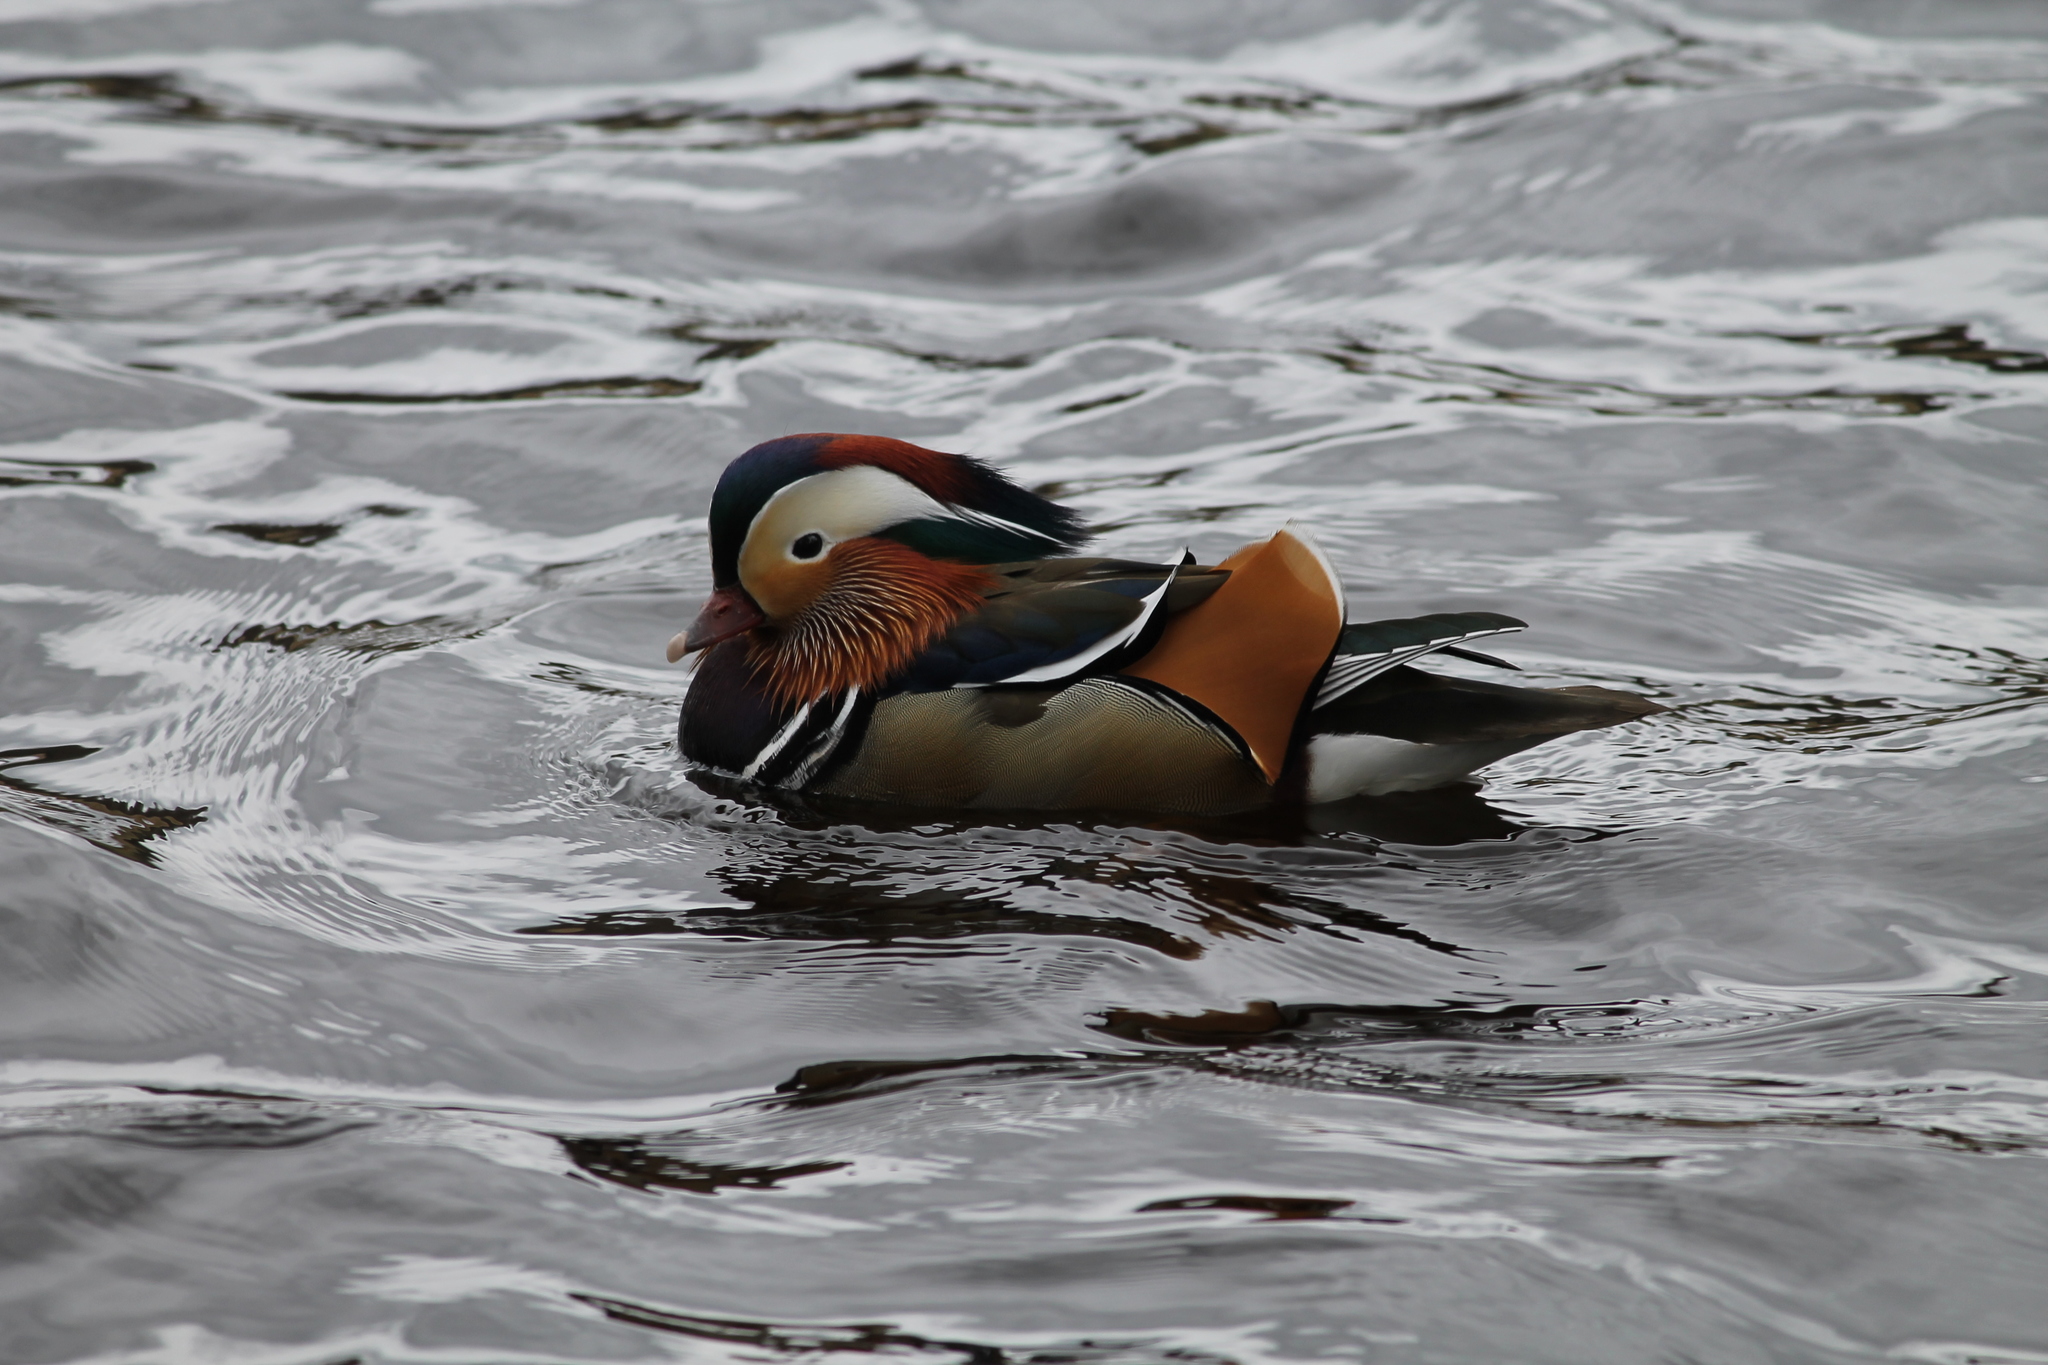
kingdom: Animalia
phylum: Chordata
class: Aves
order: Anseriformes
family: Anatidae
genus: Aix
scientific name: Aix galericulata
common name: Mandarin duck
